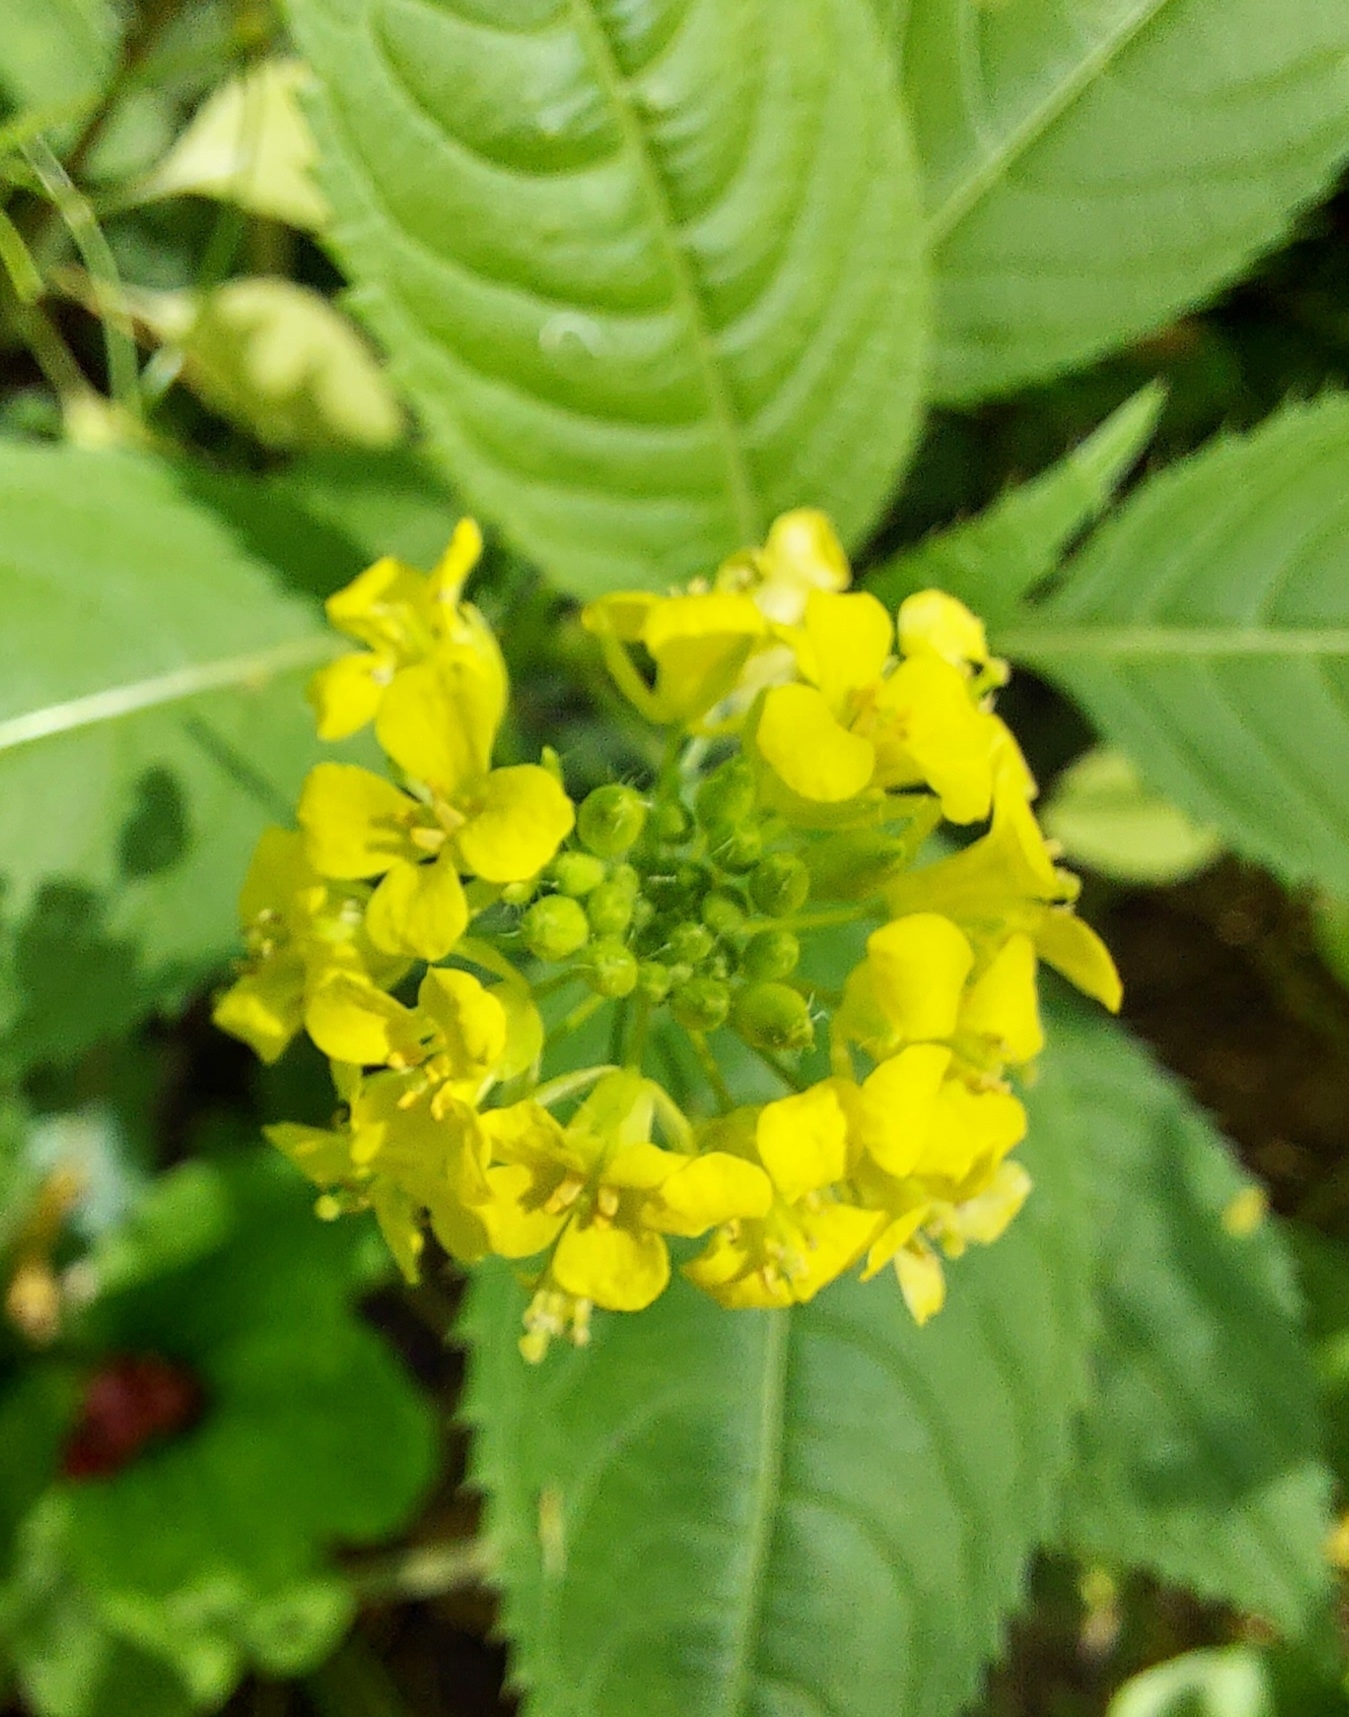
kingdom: Plantae
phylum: Tracheophyta
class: Magnoliopsida
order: Brassicales
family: Brassicaceae
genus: Sisymbrium
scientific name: Sisymbrium loeselii
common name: False london-rocket
